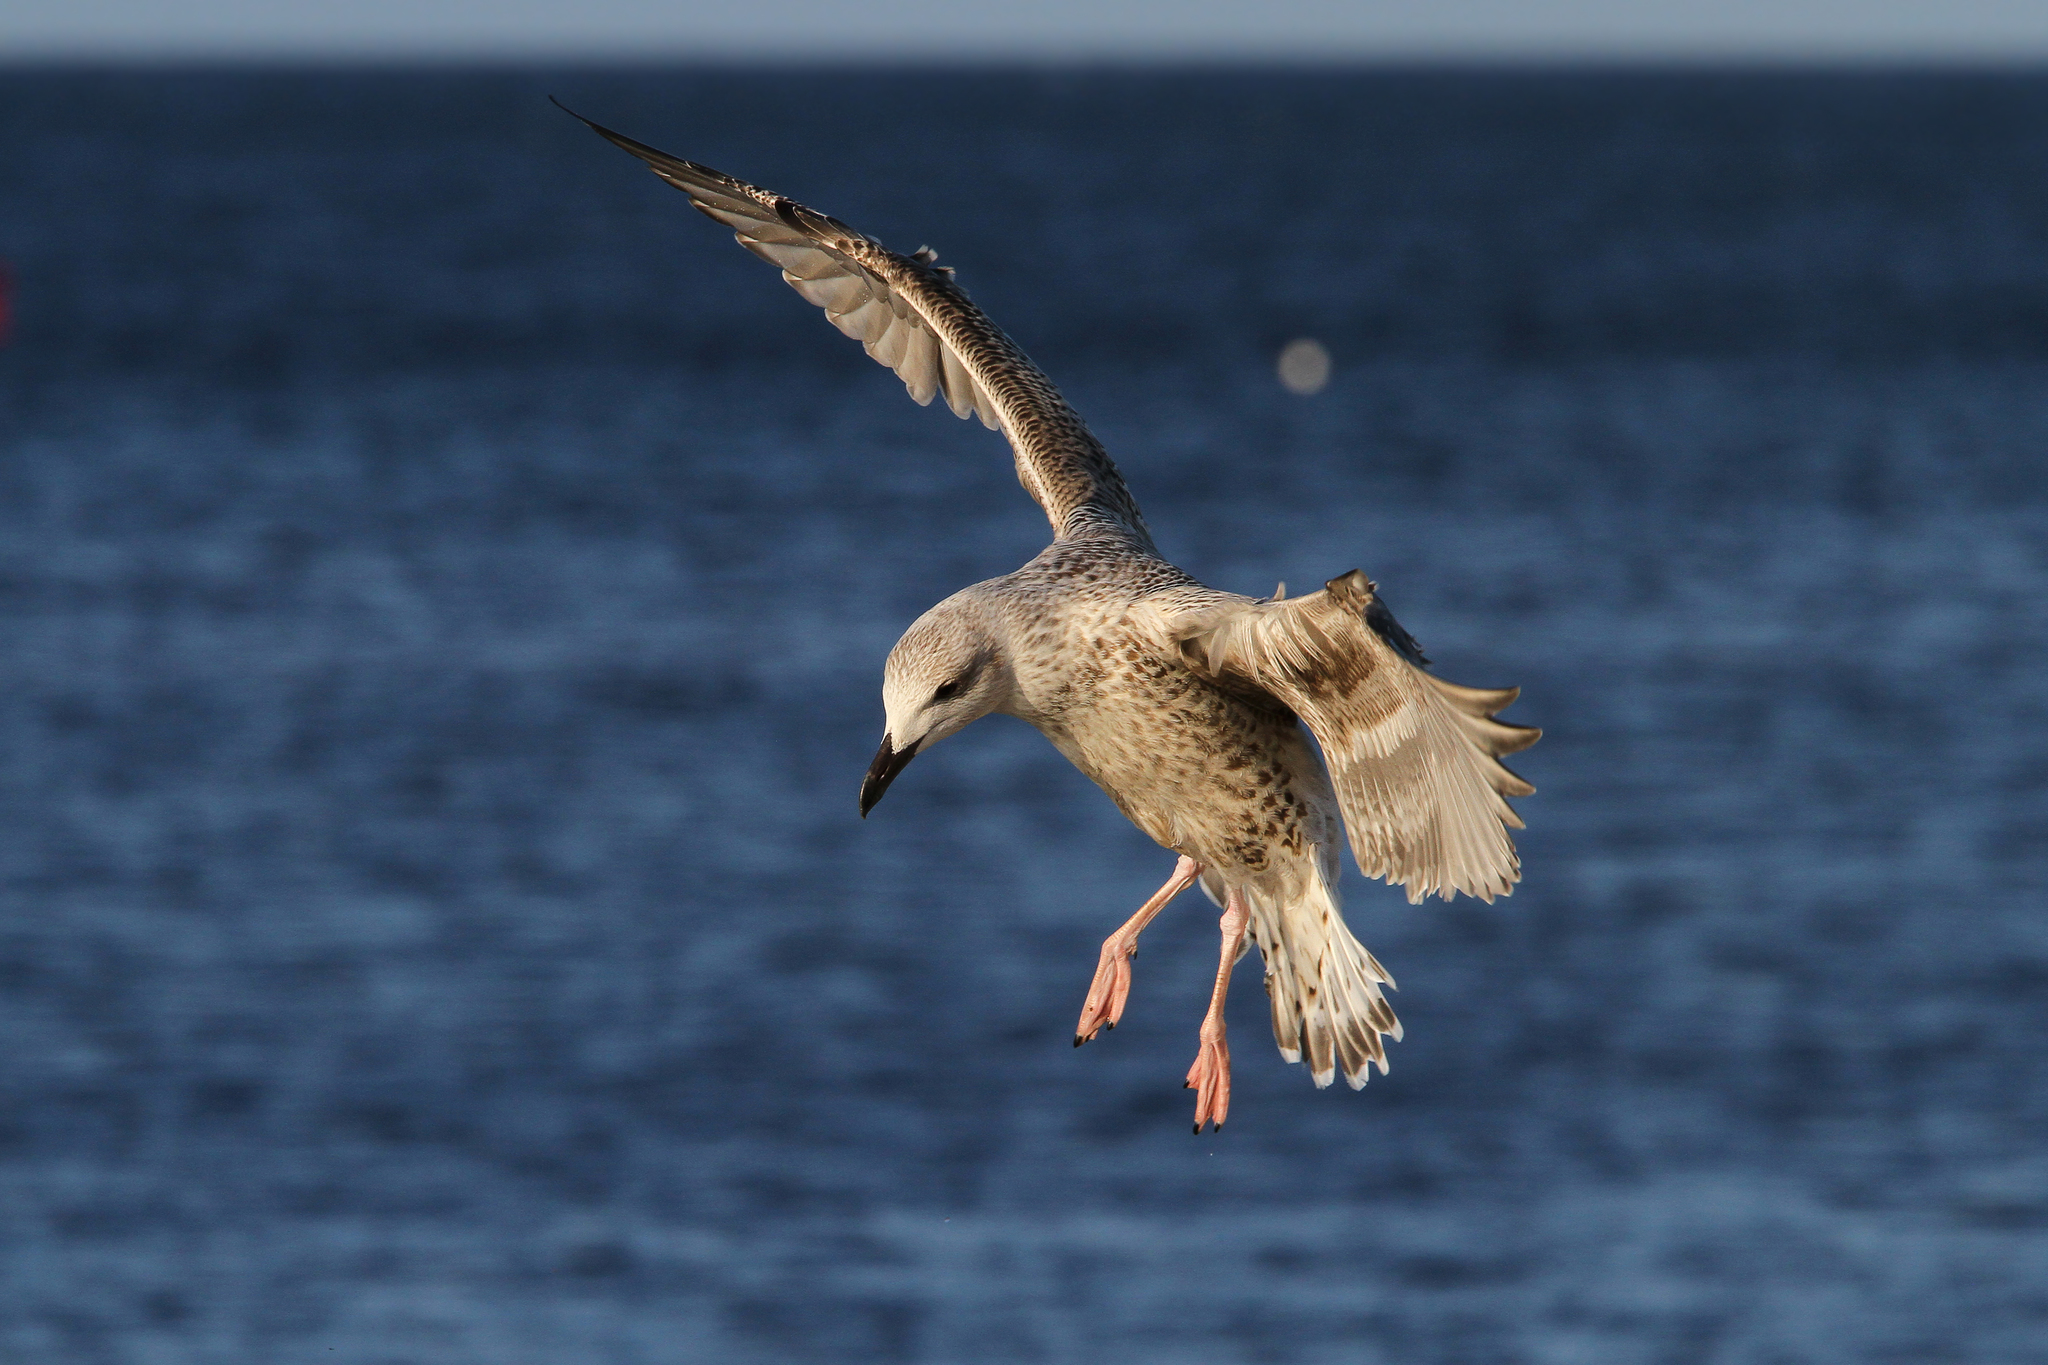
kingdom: Animalia
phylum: Chordata
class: Aves
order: Charadriiformes
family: Laridae
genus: Larus
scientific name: Larus argentatus
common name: Herring gull
